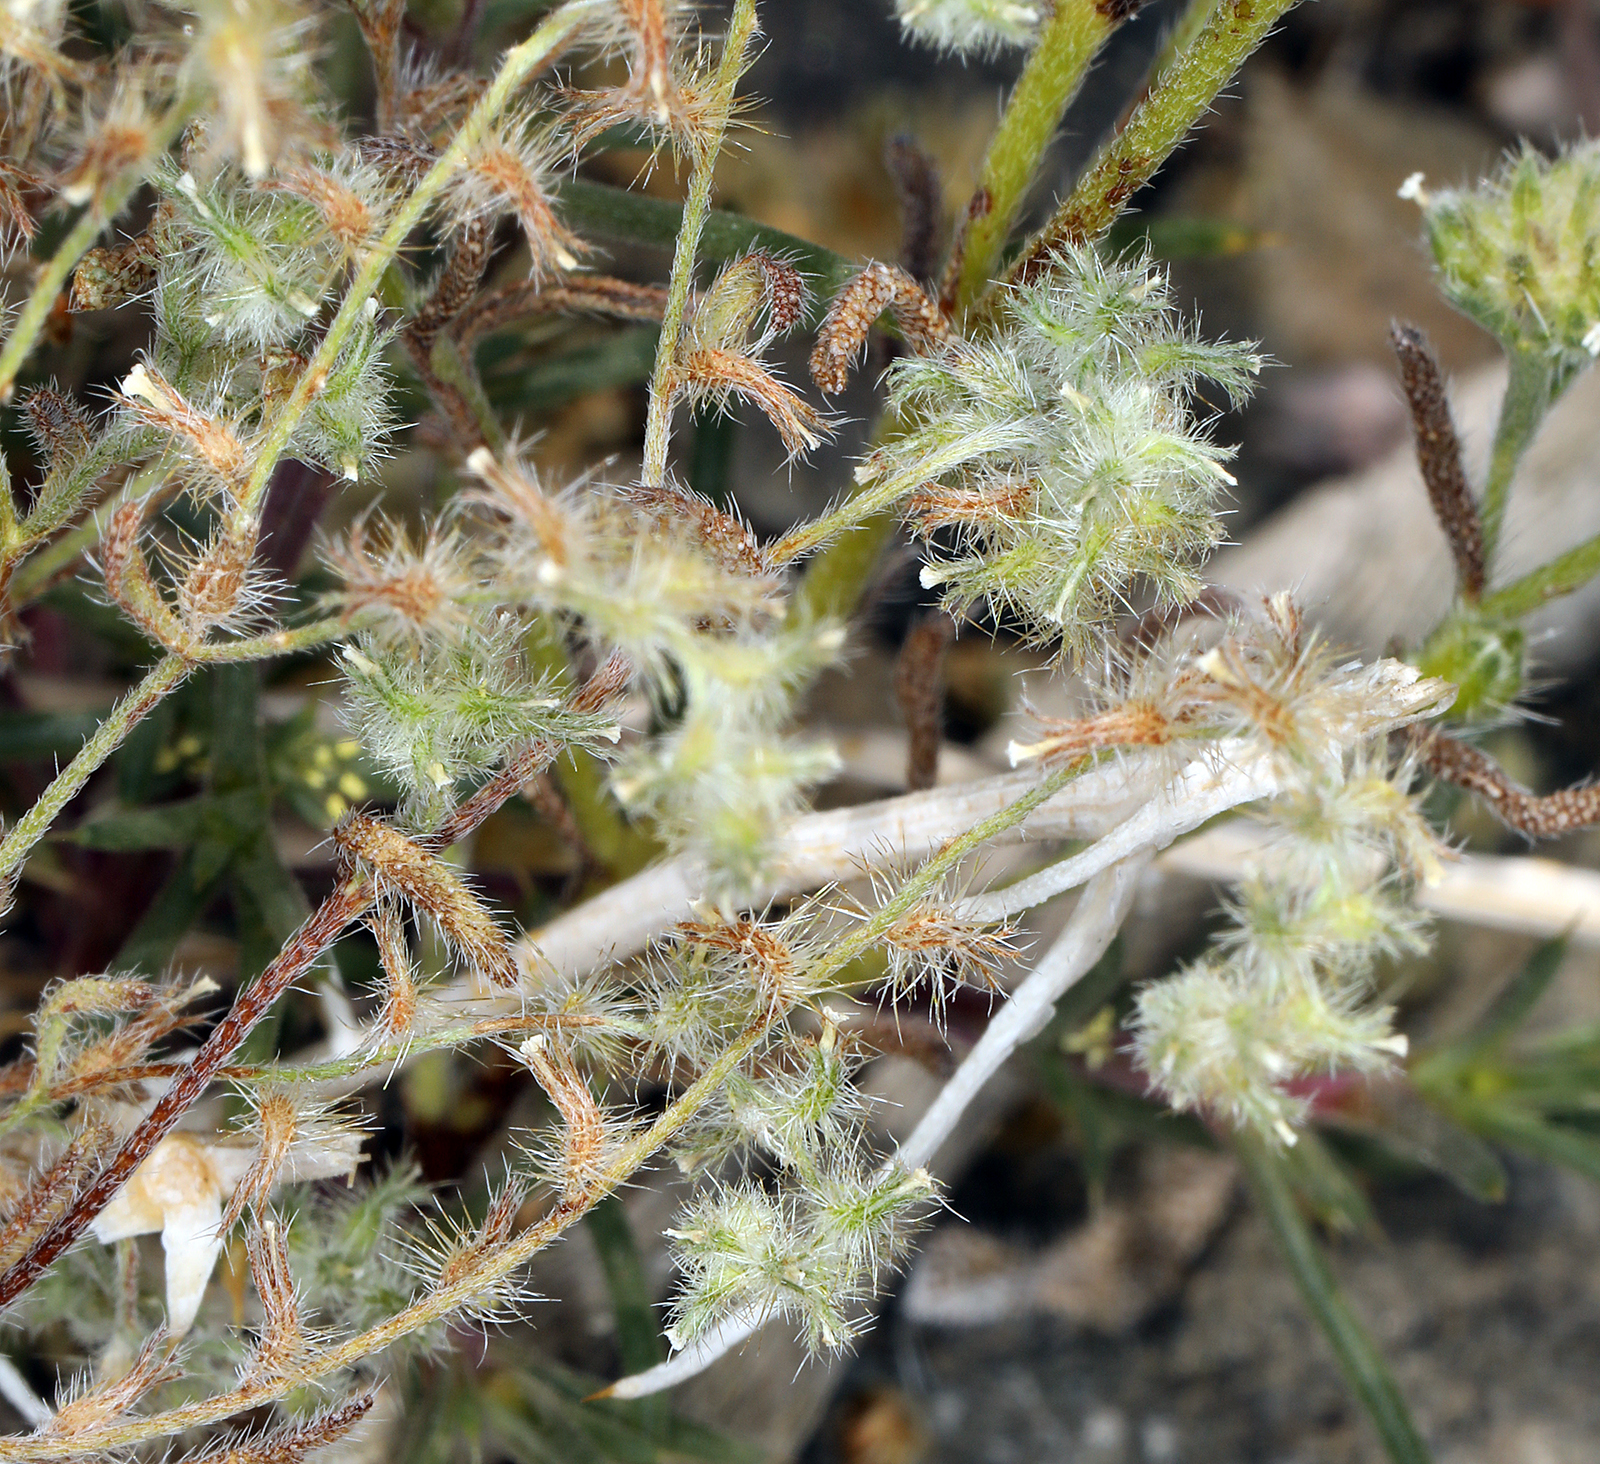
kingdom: Plantae
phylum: Tracheophyta
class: Magnoliopsida
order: Boraginales
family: Boraginaceae
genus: Cryptantha
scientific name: Cryptantha nevadensis
